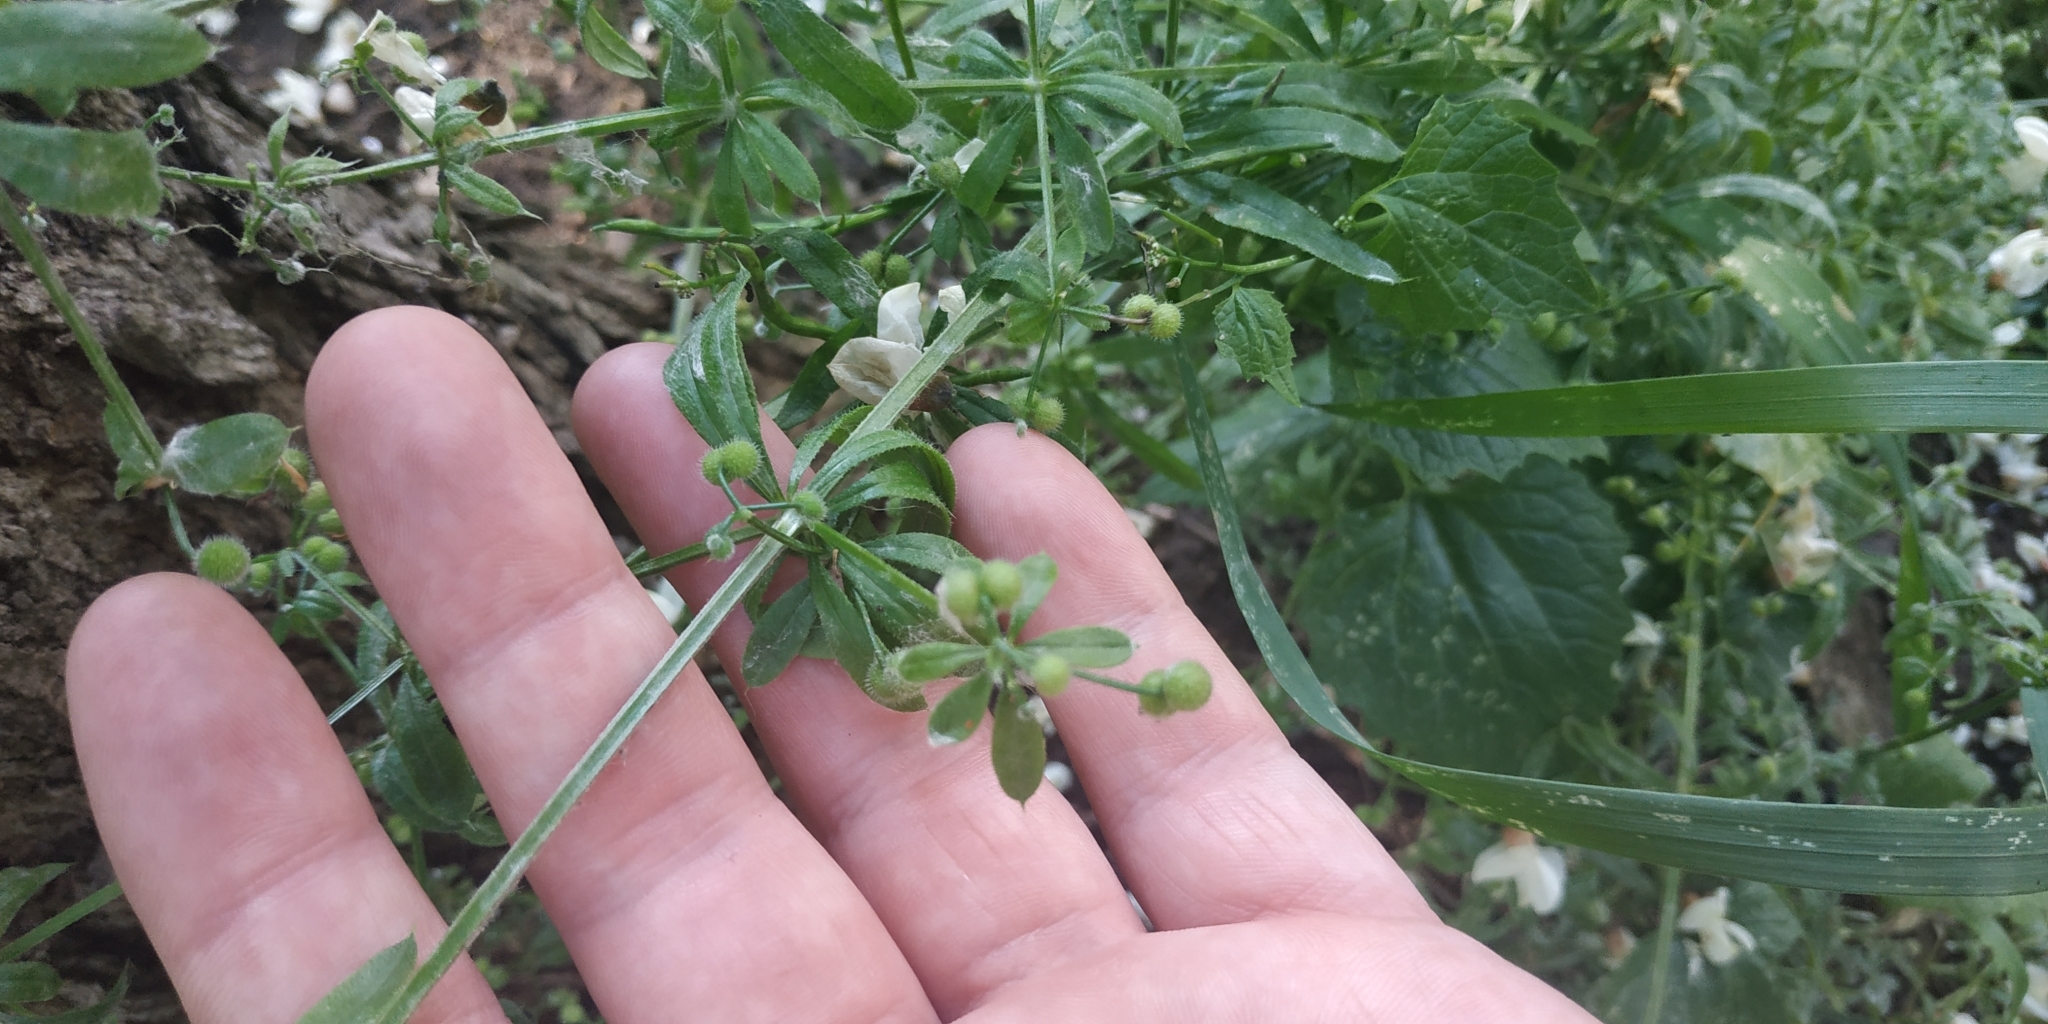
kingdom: Plantae
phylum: Tracheophyta
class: Magnoliopsida
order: Gentianales
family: Rubiaceae
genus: Galium
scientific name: Galium aparine
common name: Cleavers
